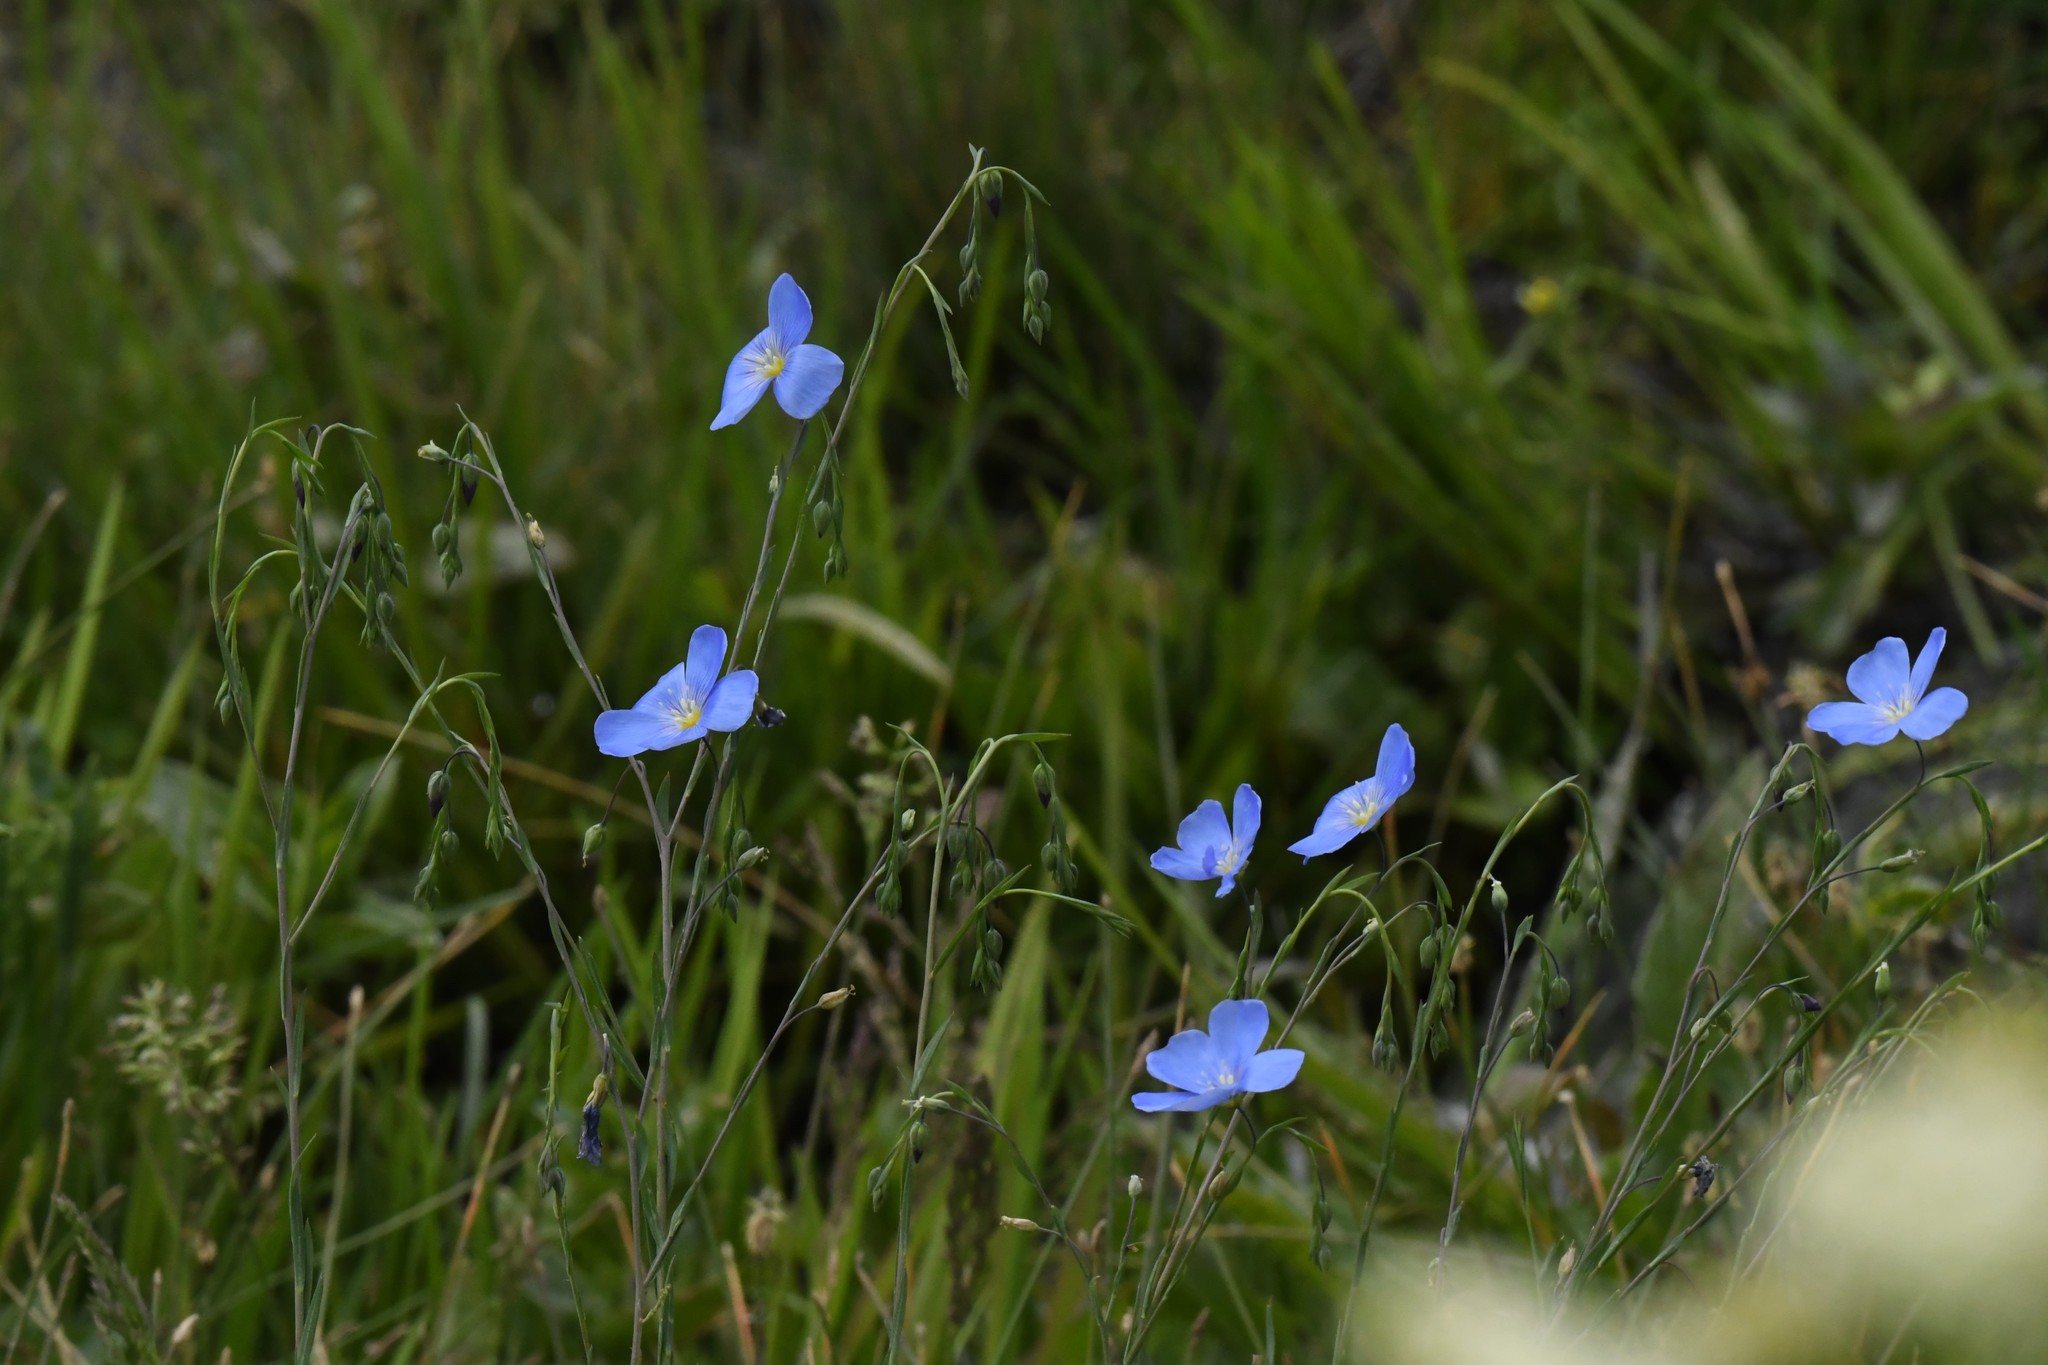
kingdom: Plantae
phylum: Tracheophyta
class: Magnoliopsida
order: Malpighiales
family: Linaceae
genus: Linum
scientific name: Linum lewisii
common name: Prairie flax
